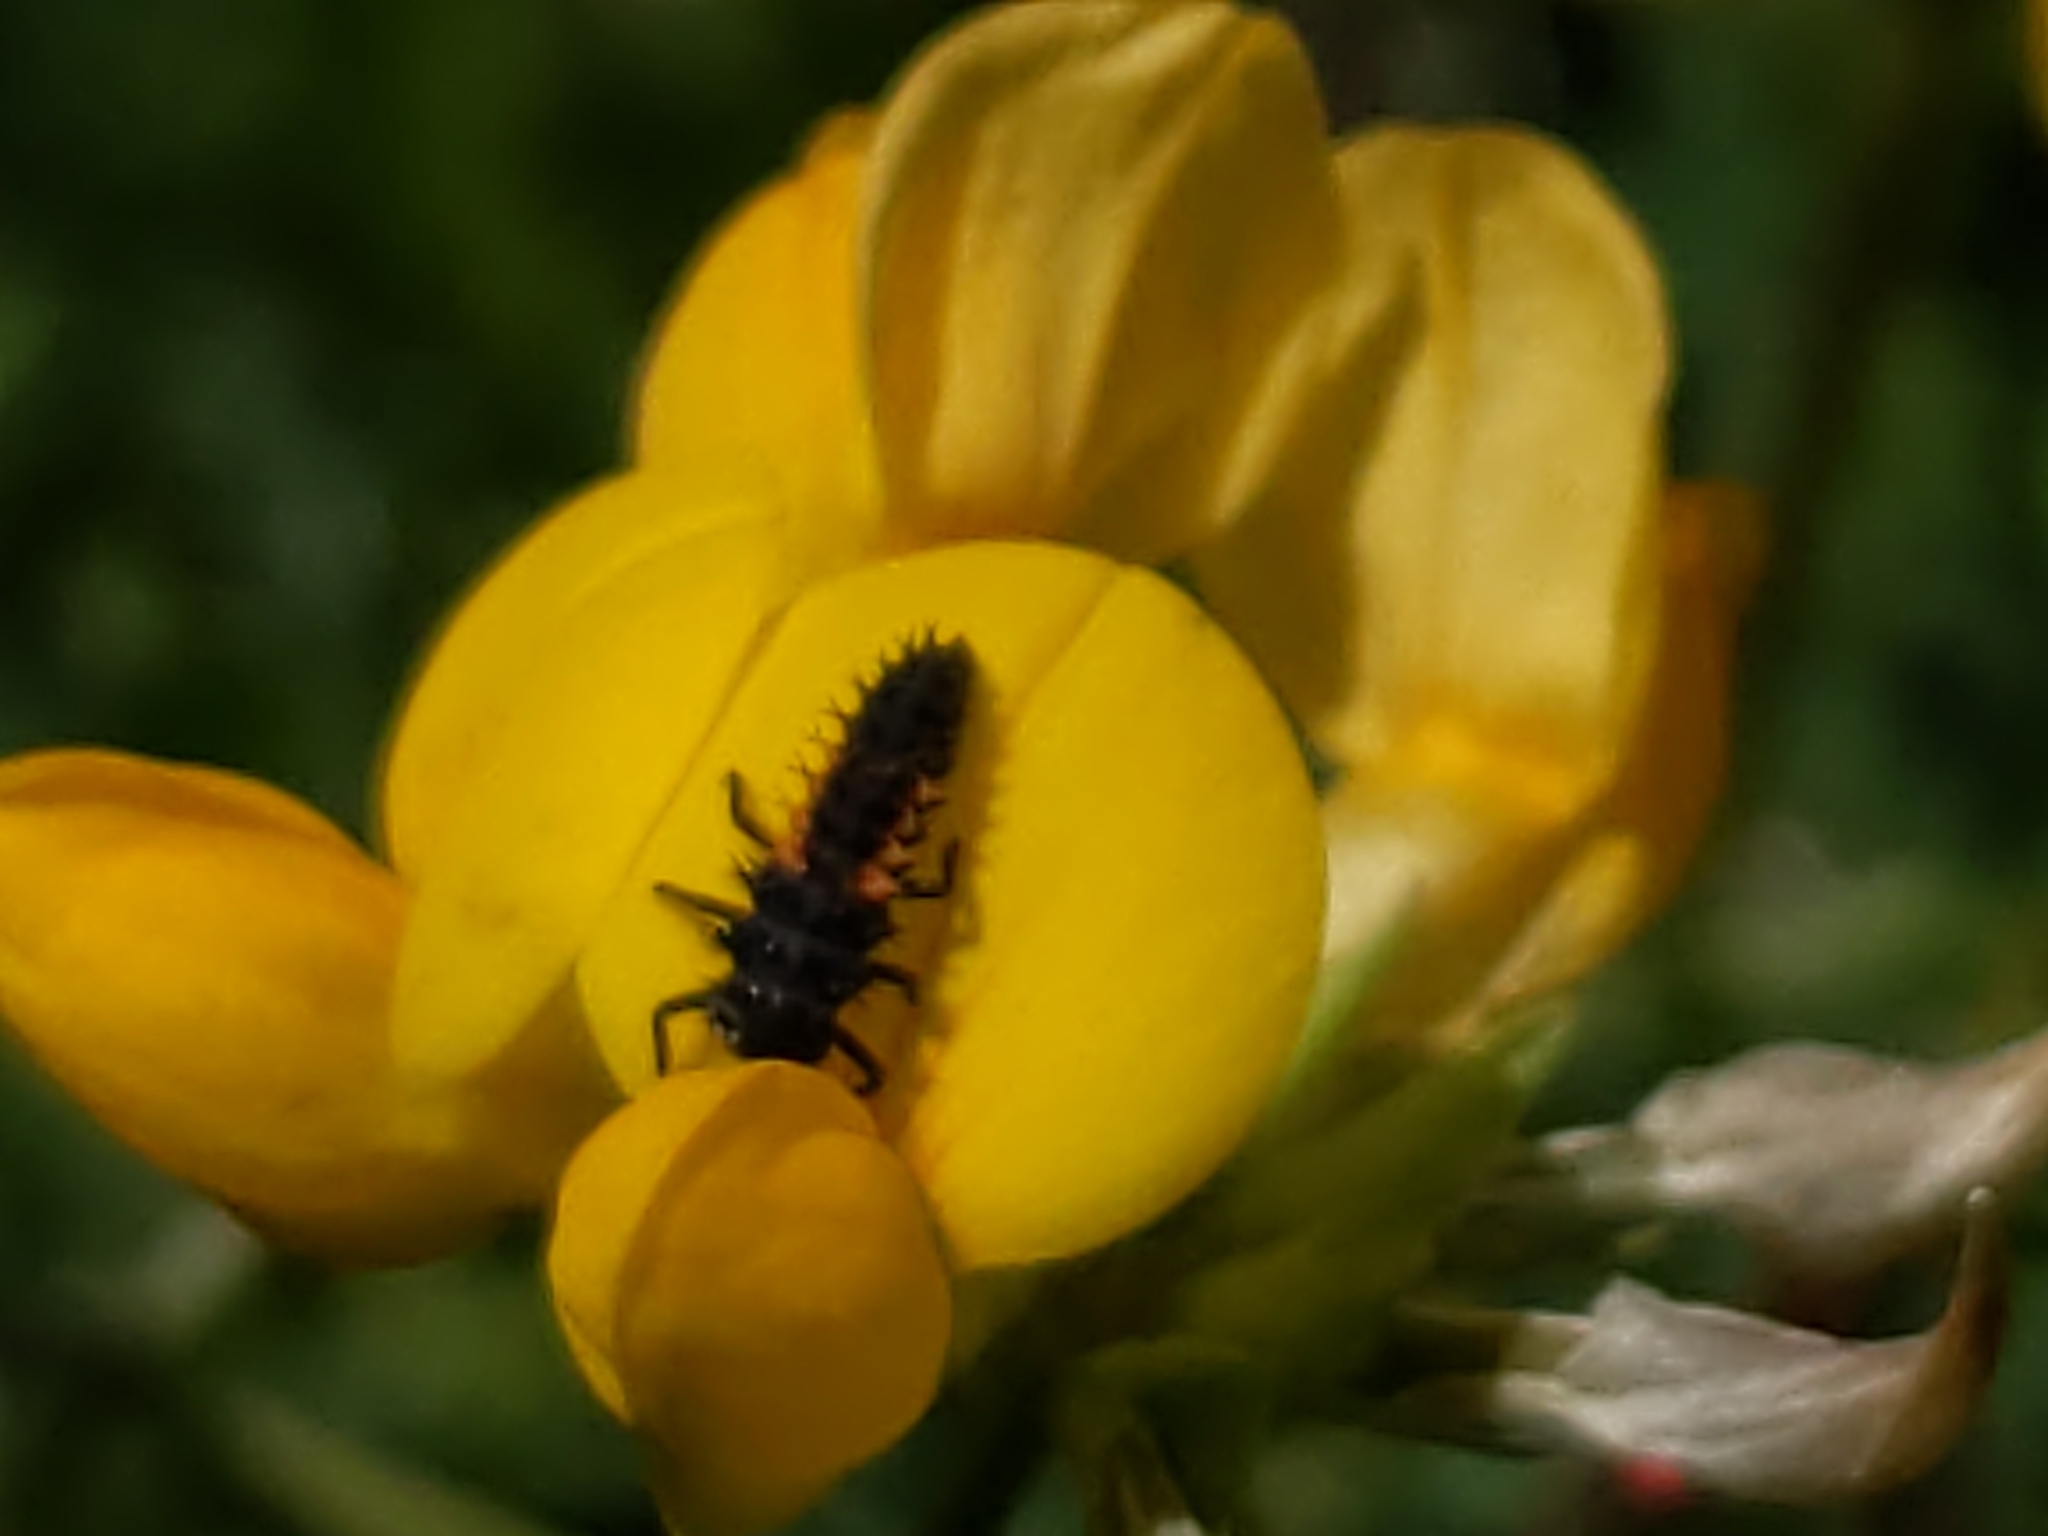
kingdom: Animalia
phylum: Arthropoda
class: Insecta
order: Coleoptera
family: Coccinellidae
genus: Harmonia
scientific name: Harmonia axyridis
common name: Harlequin ladybird
